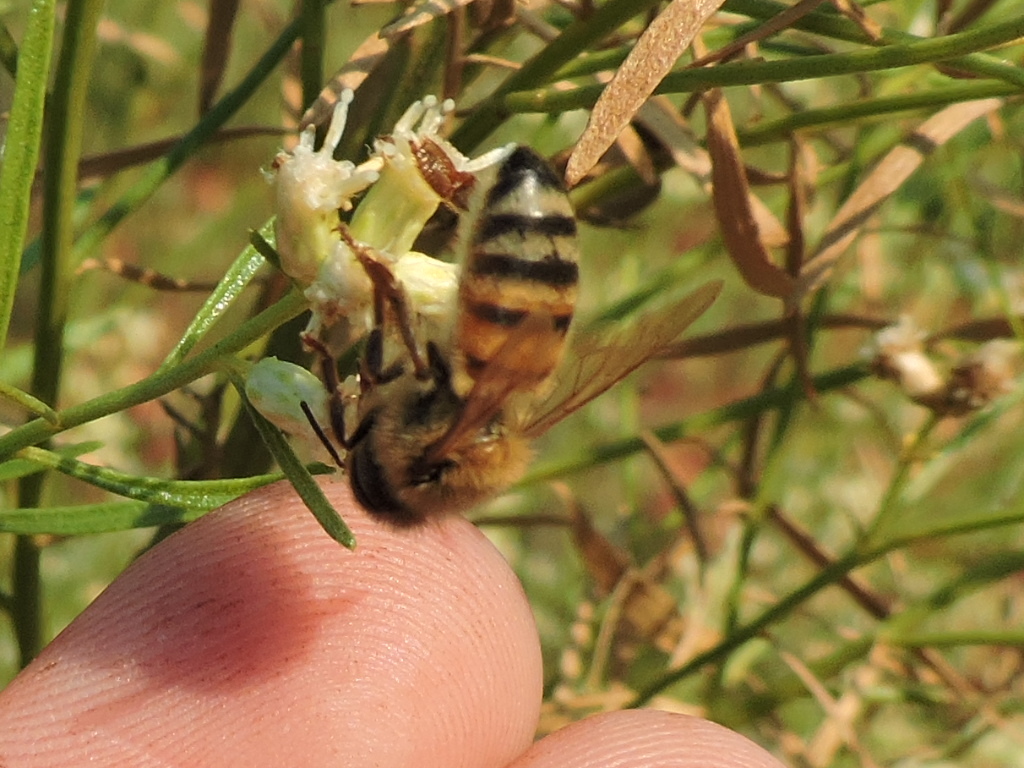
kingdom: Animalia
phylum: Arthropoda
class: Insecta
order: Hymenoptera
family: Apidae
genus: Apis
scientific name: Apis mellifera
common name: Honey bee
